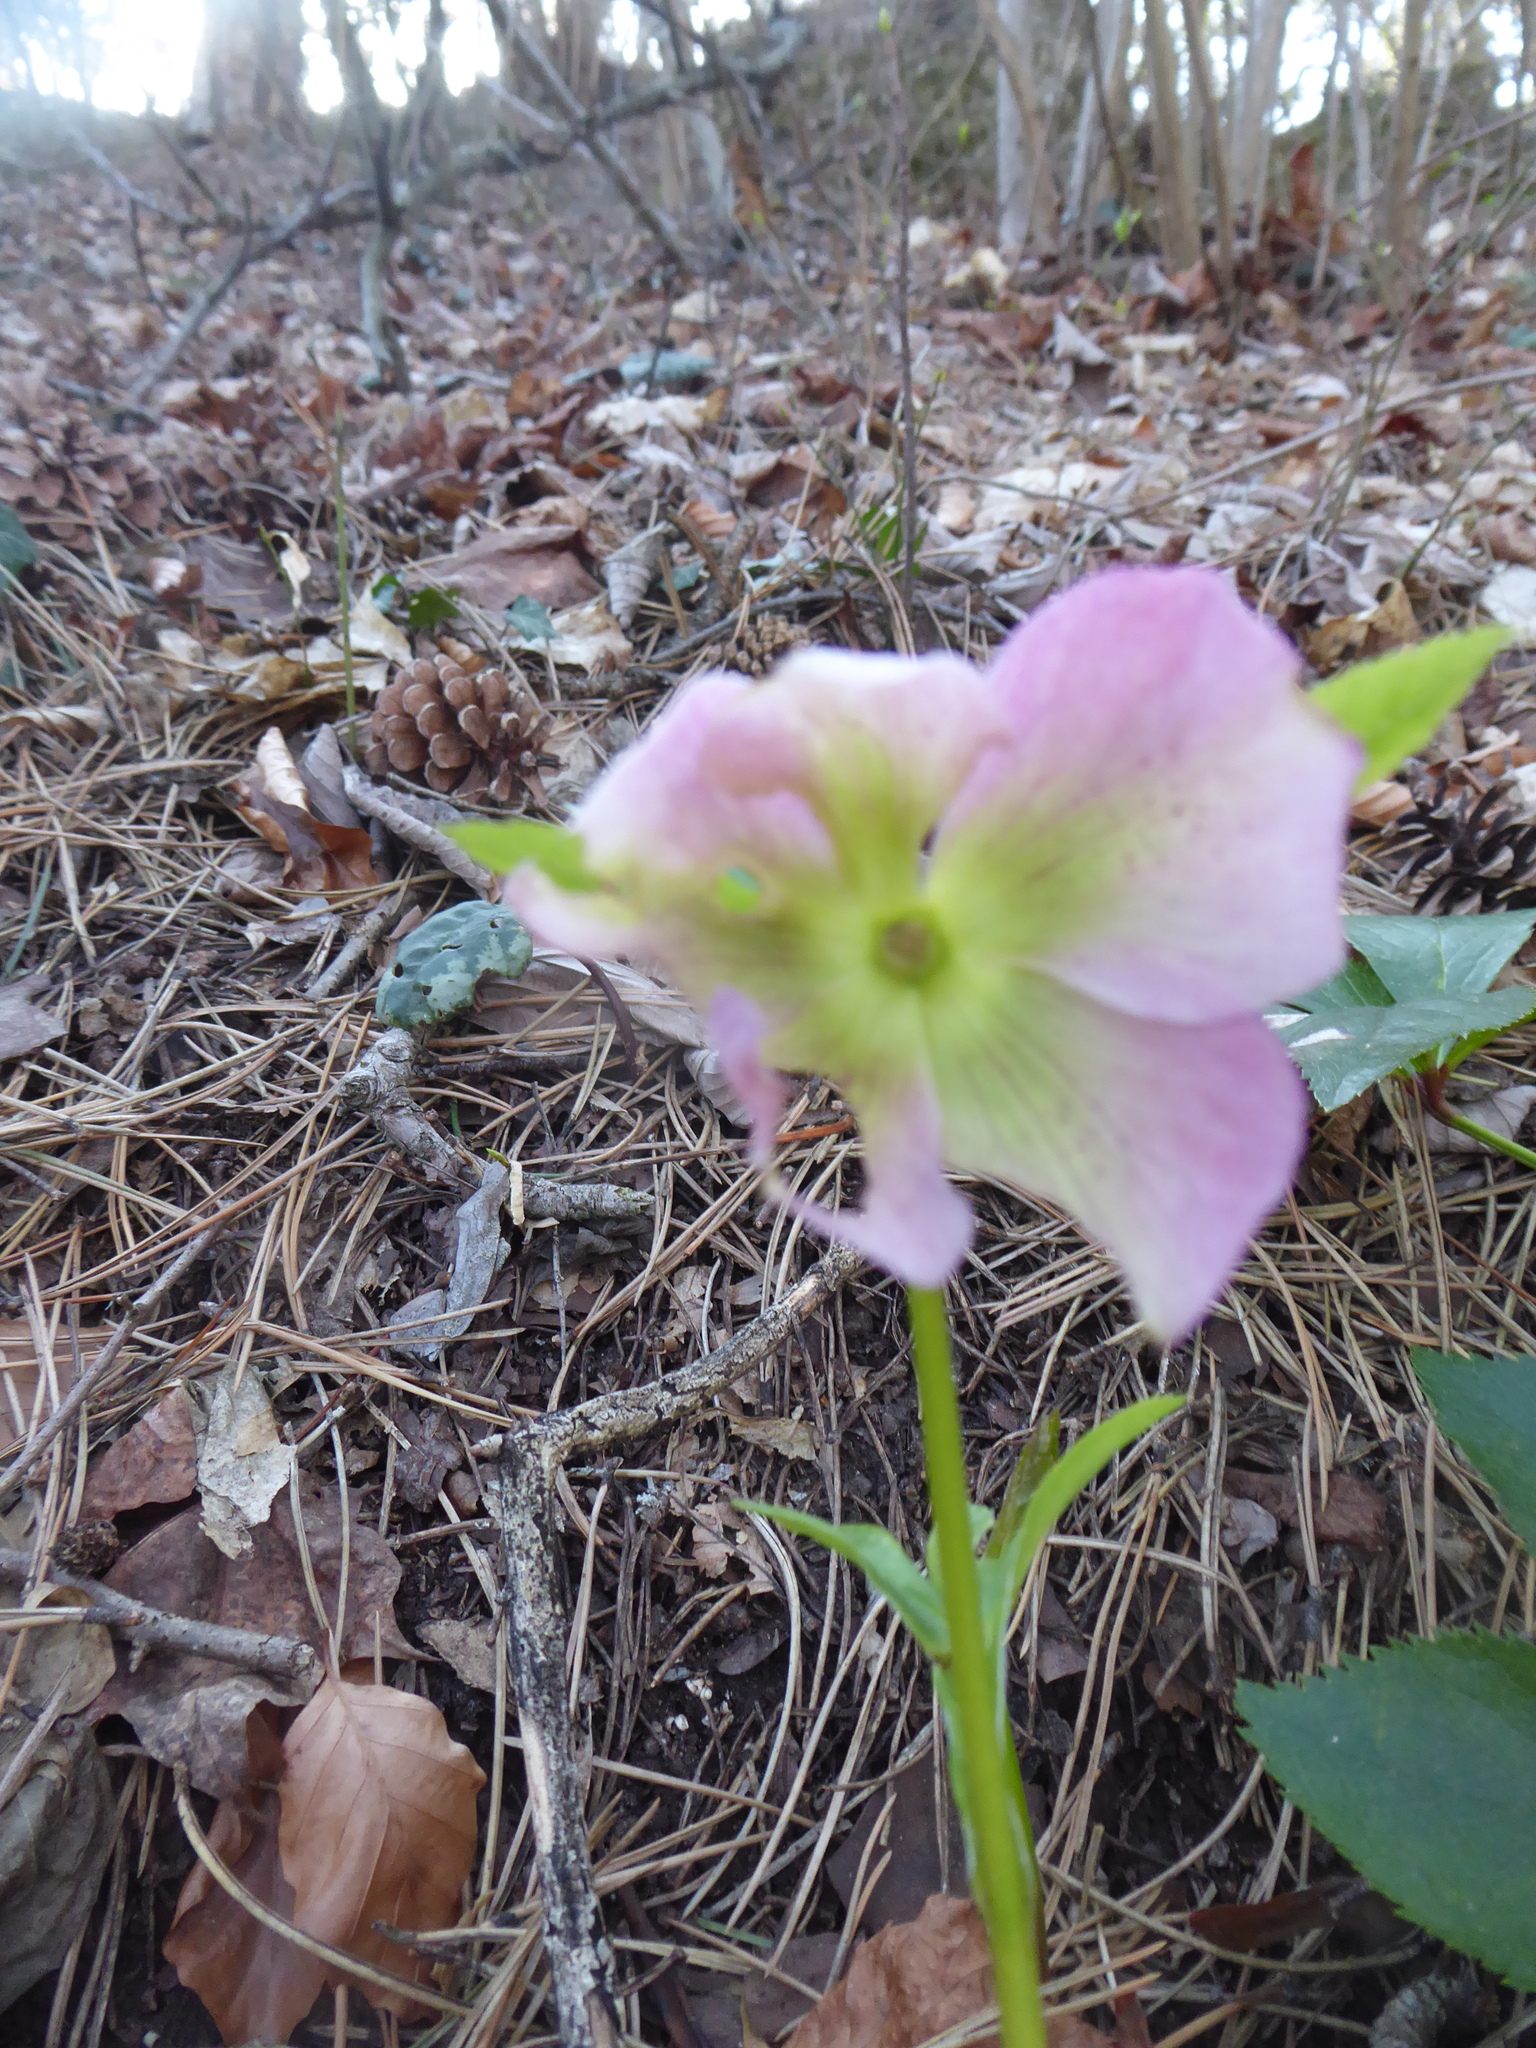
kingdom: Plantae
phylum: Tracheophyta
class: Magnoliopsida
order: Ranunculales
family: Ranunculaceae
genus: Helleborus
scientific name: Helleborus hybridus
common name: Hybrid lenten-rose
